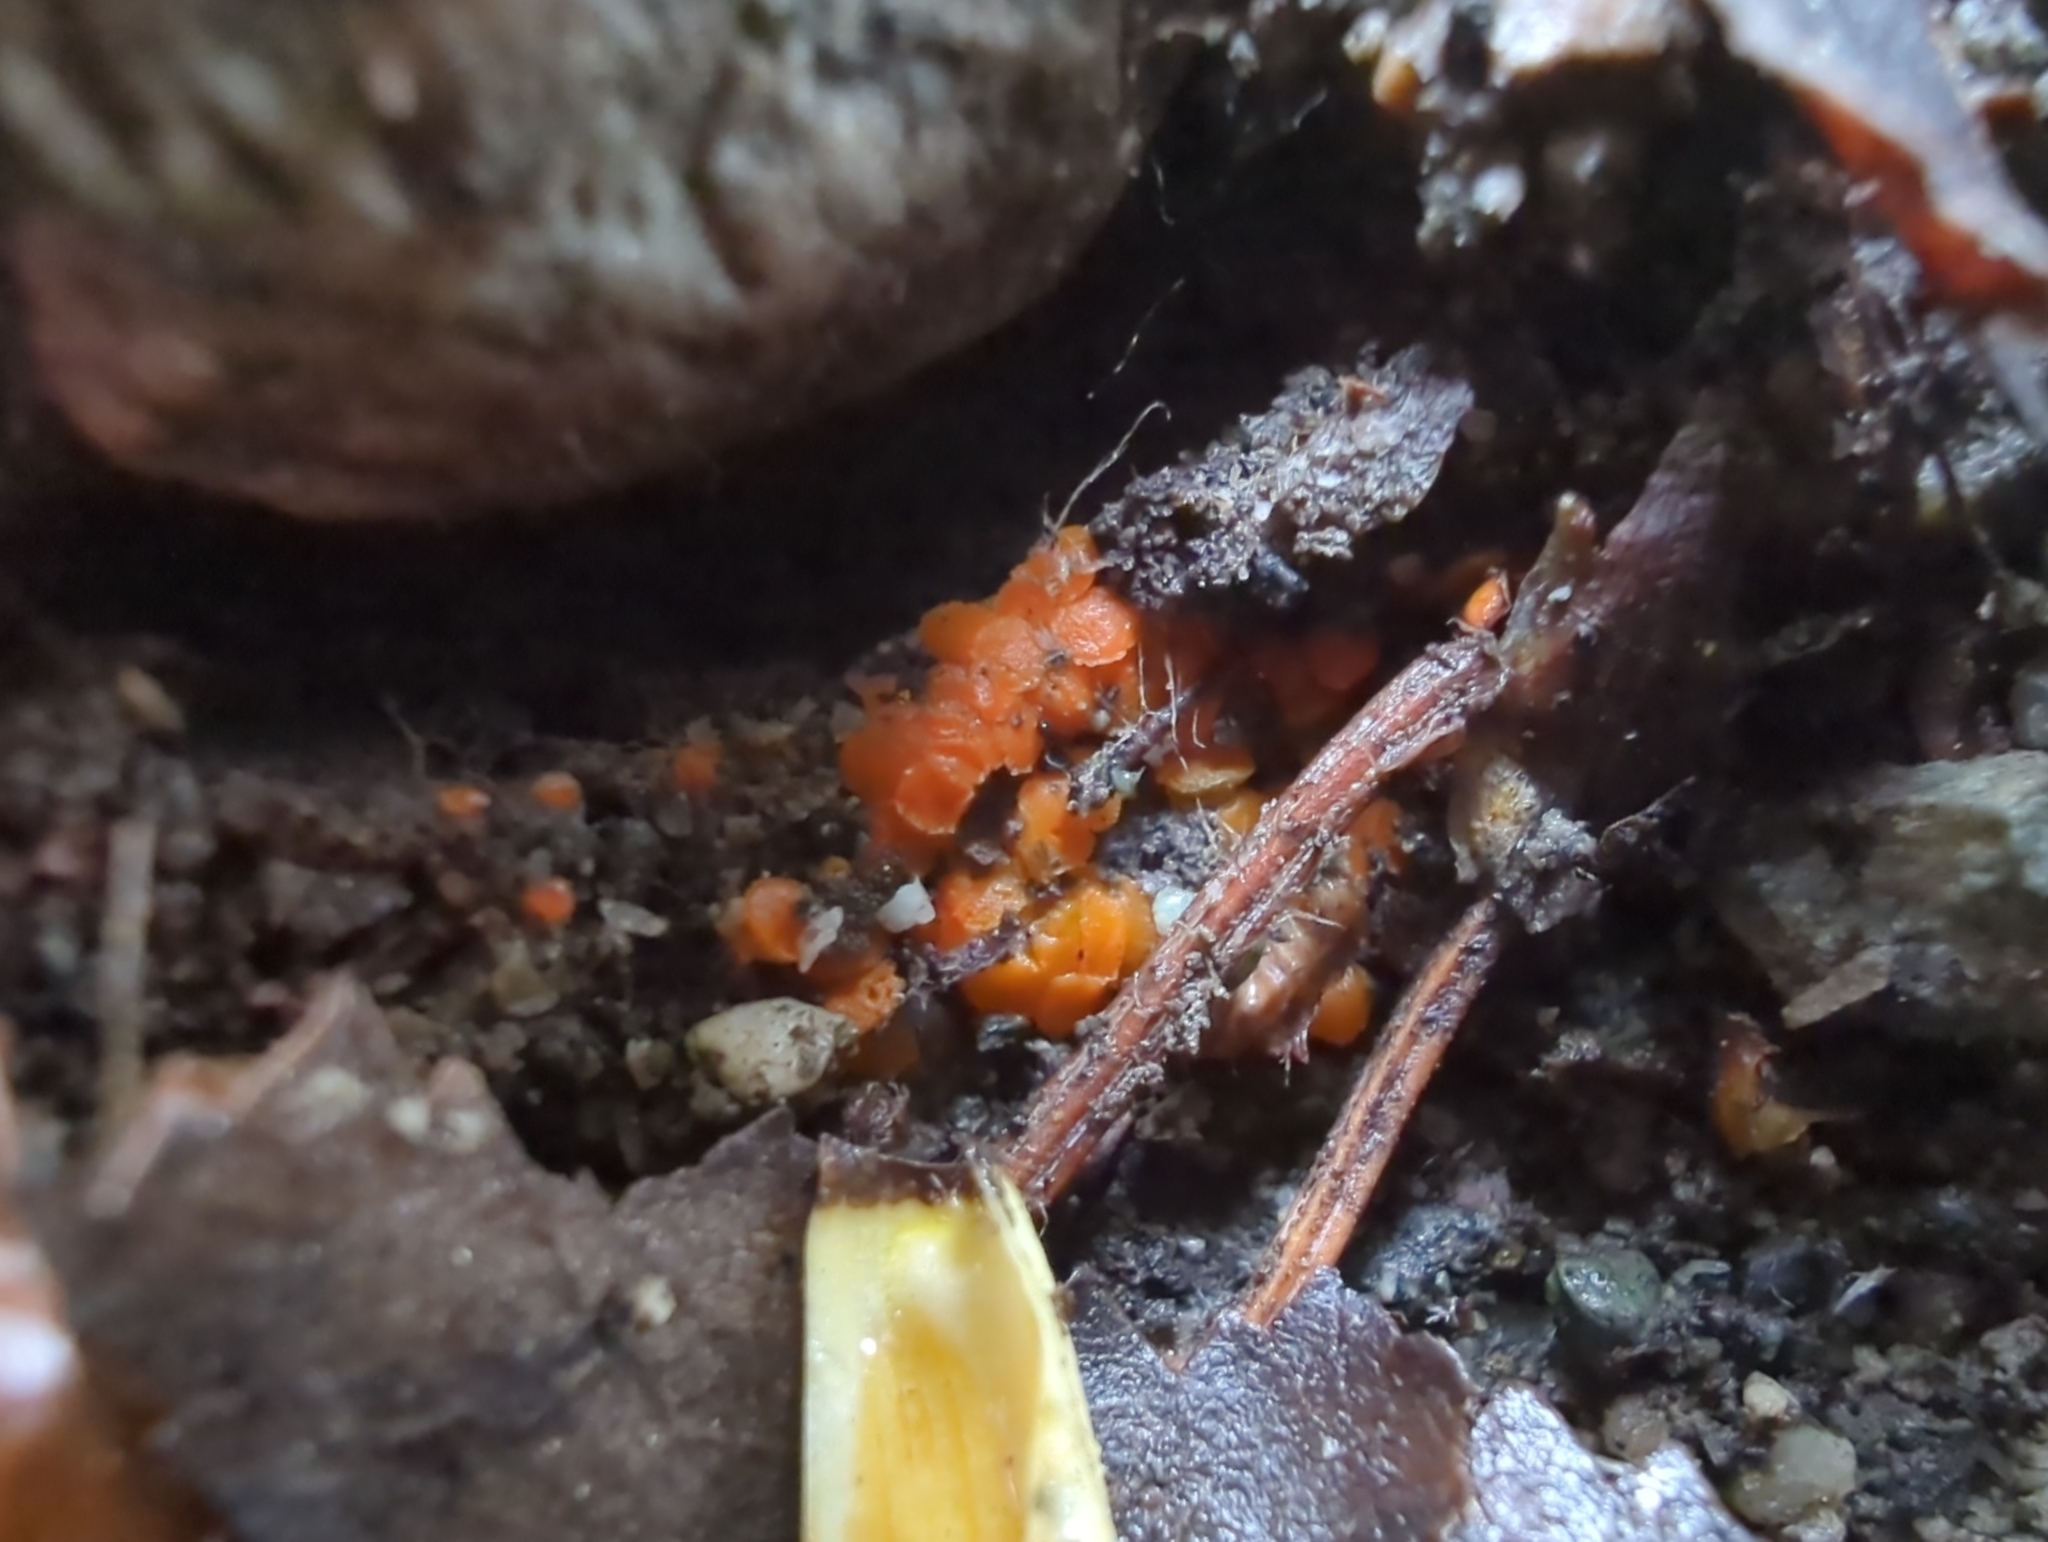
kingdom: Fungi
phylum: Ascomycota
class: Pezizomycetes
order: Pezizales
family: Pyronemataceae
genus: Byssonectria
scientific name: Byssonectria terrestris
